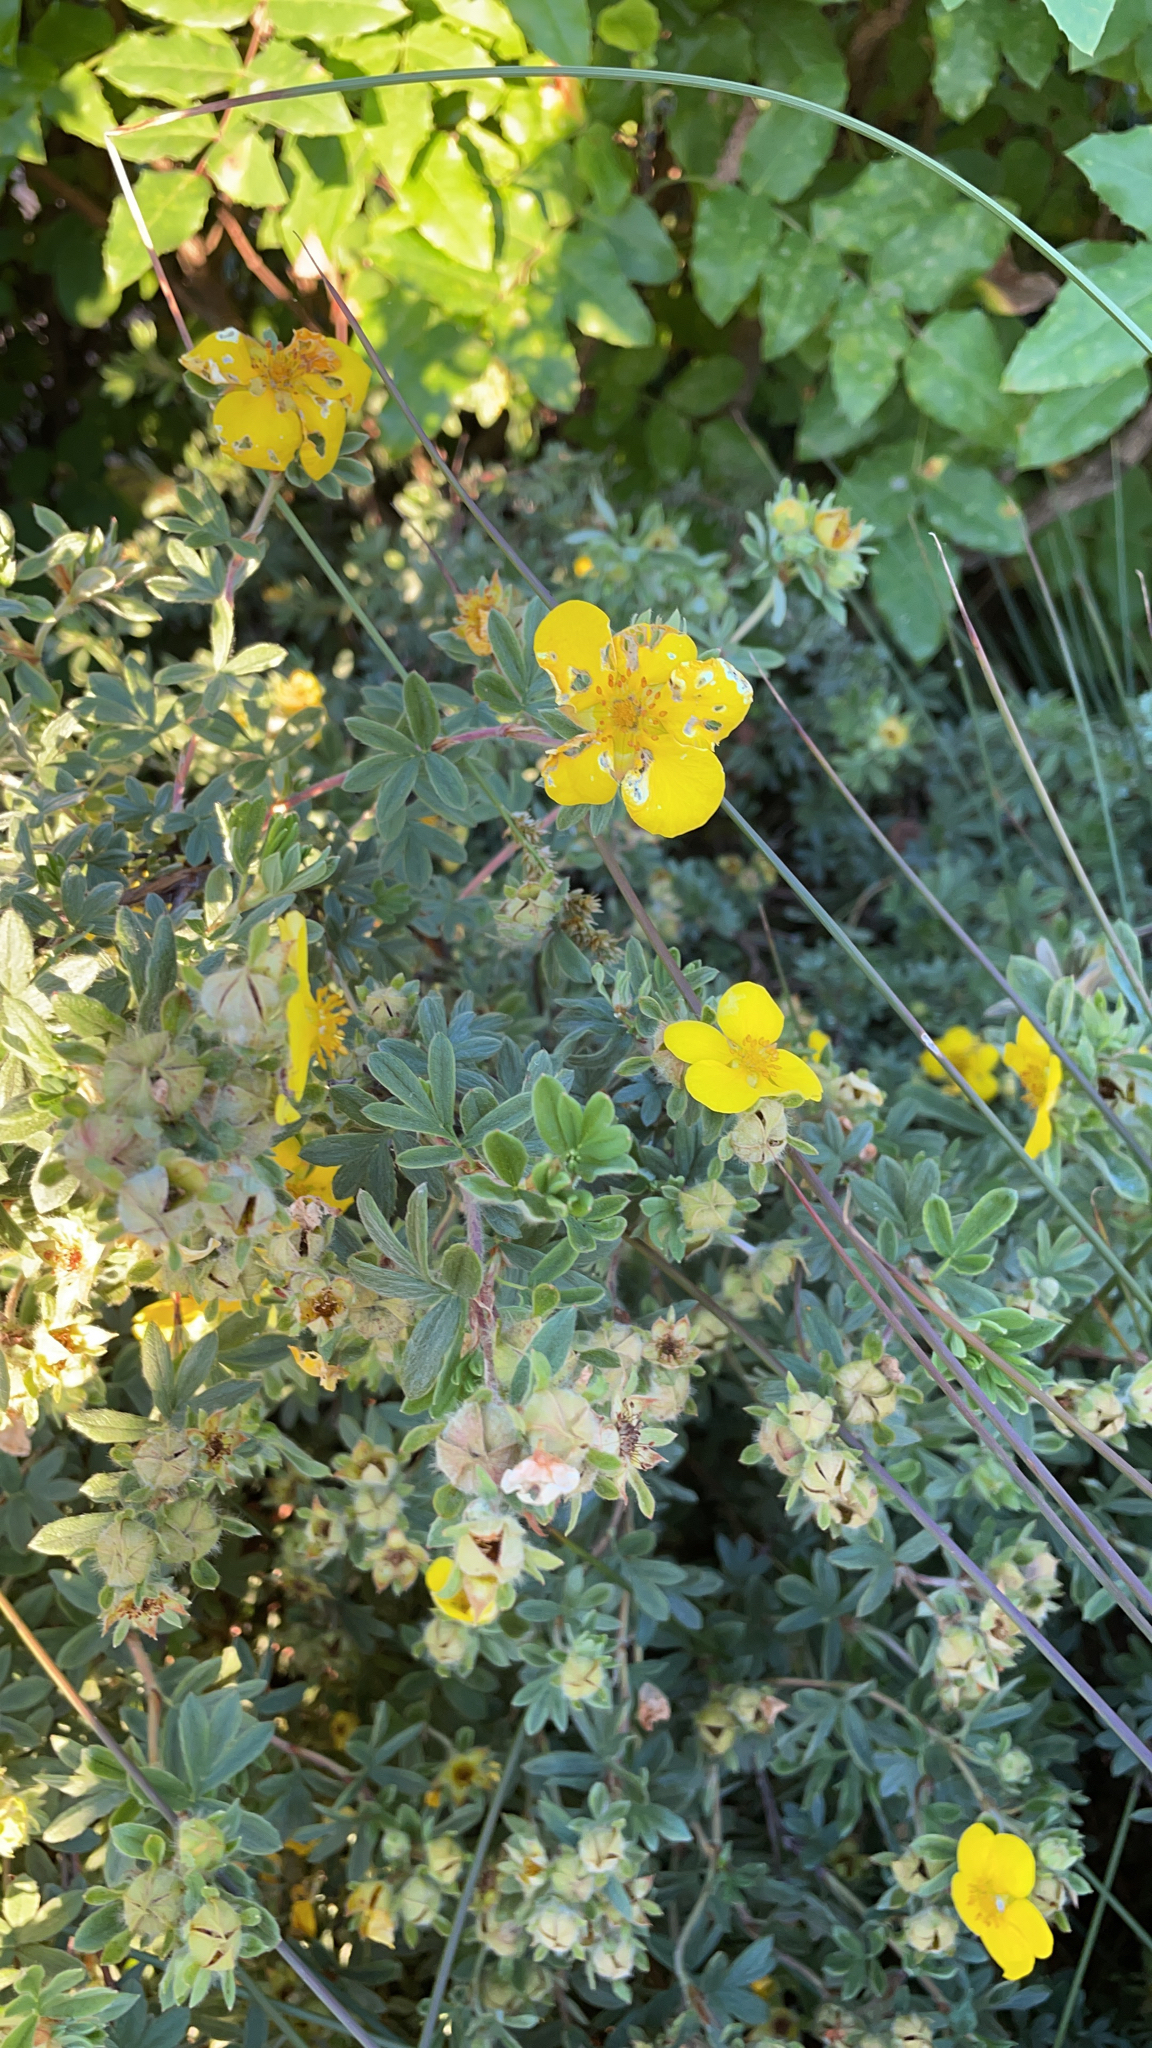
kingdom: Plantae
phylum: Tracheophyta
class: Magnoliopsida
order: Rosales
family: Rosaceae
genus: Dasiphora
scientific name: Dasiphora fruticosa
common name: Shrubby cinquefoil
